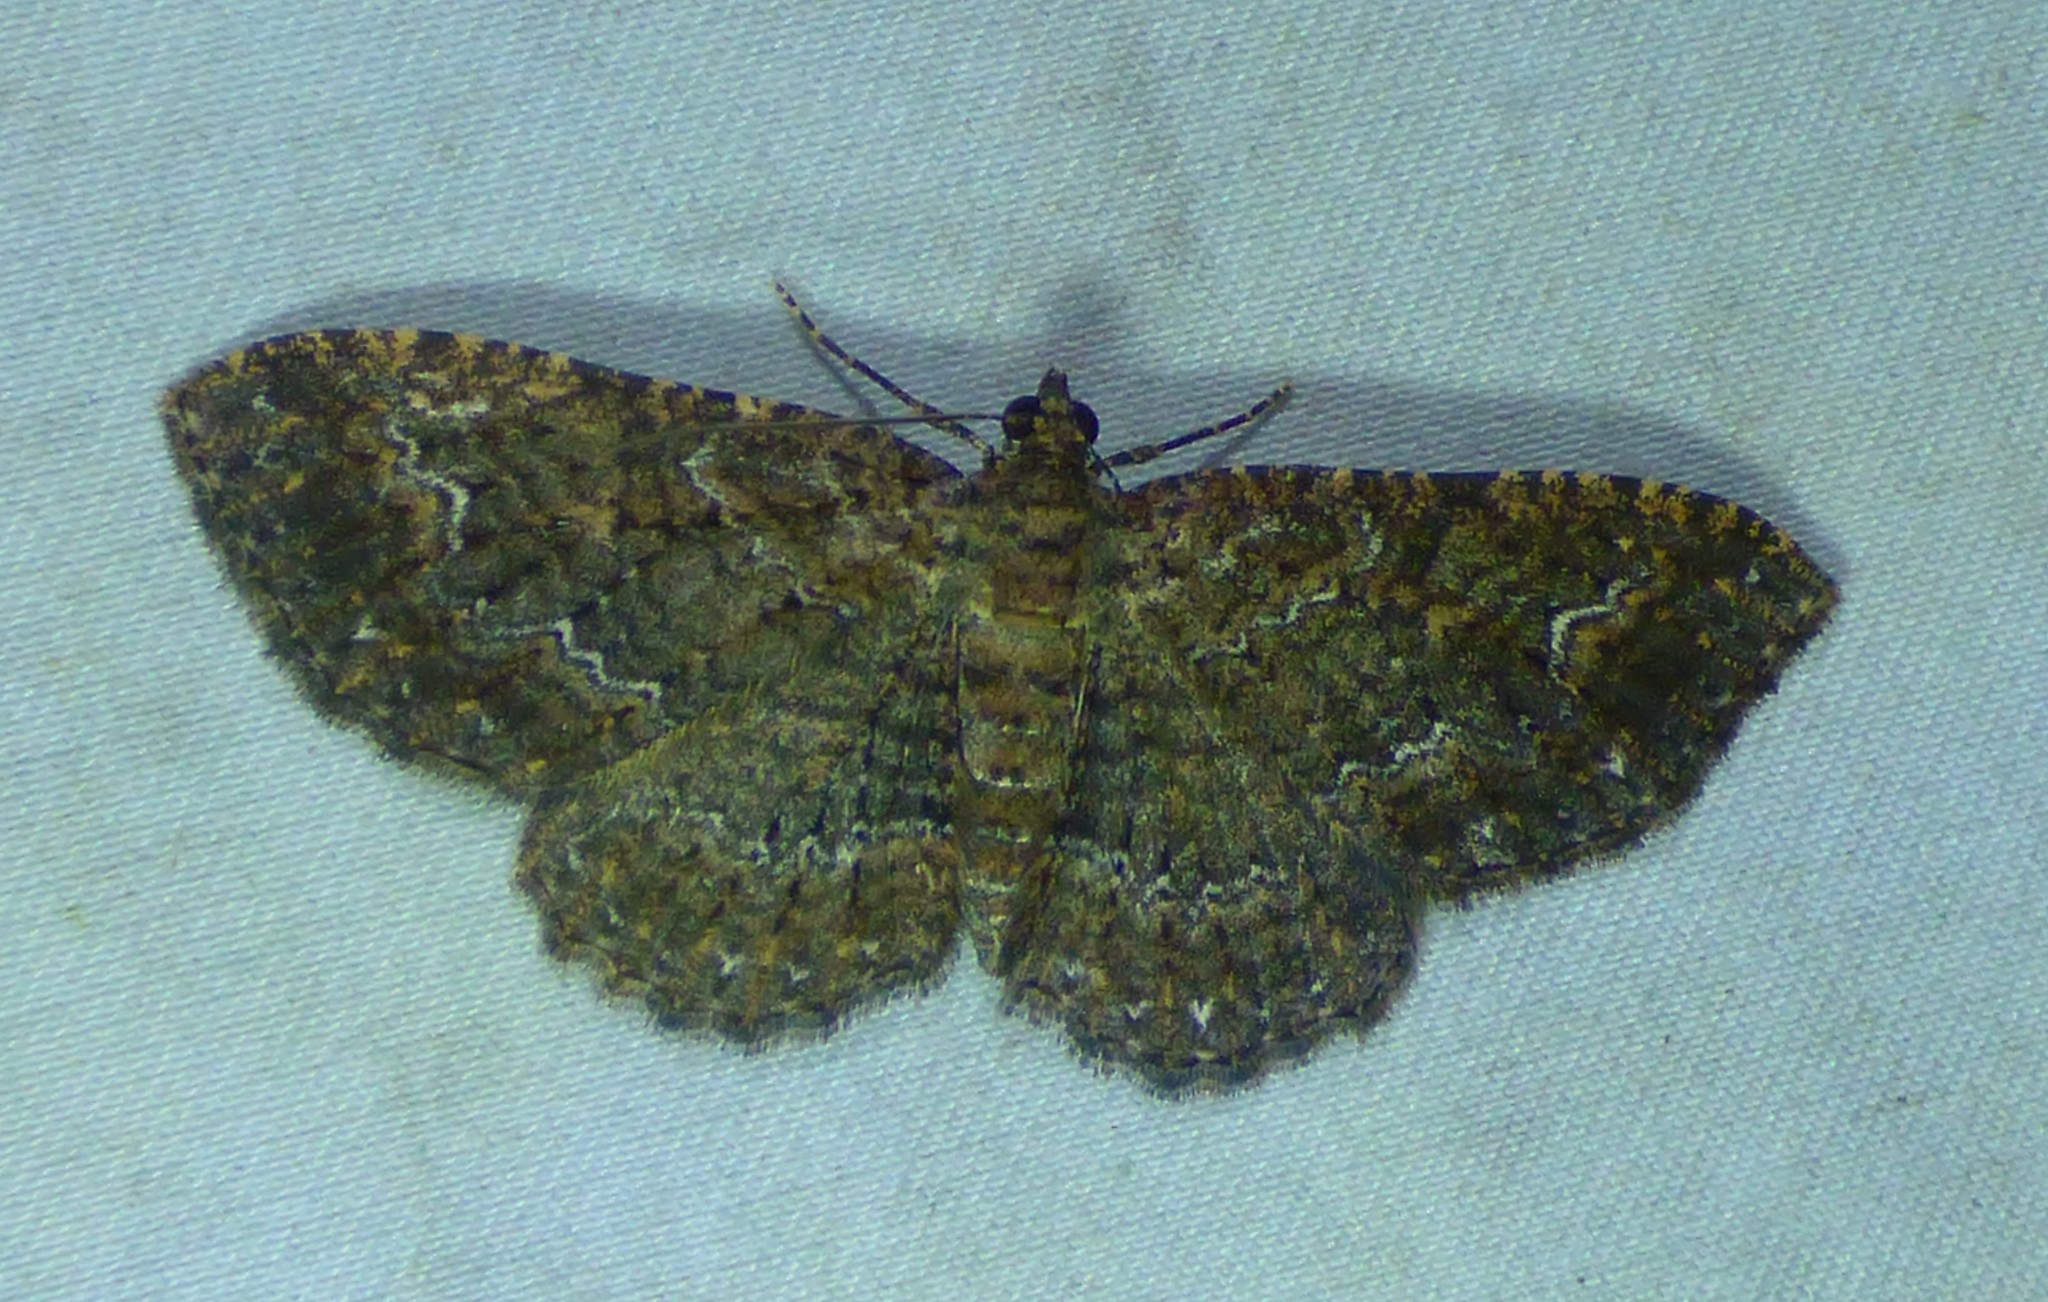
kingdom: Animalia
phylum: Arthropoda
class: Insecta
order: Lepidoptera
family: Geometridae
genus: Disclisioprocta
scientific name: Disclisioprocta stellata
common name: Somber carpet
